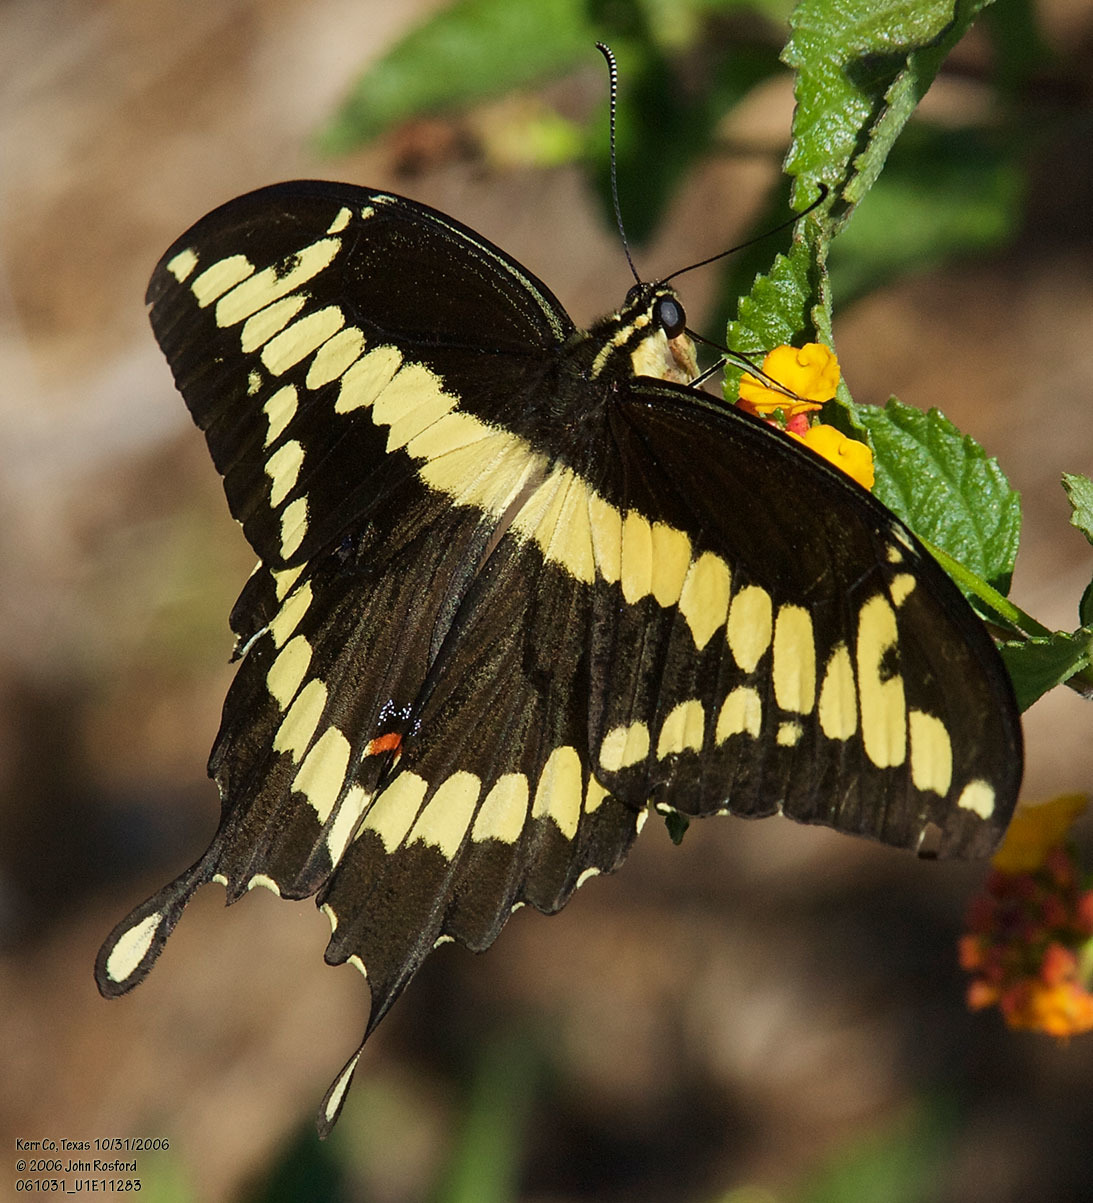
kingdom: Animalia
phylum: Arthropoda
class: Insecta
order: Lepidoptera
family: Papilionidae
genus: Papilio
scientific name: Papilio rumiko
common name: Western giant swallowtail
